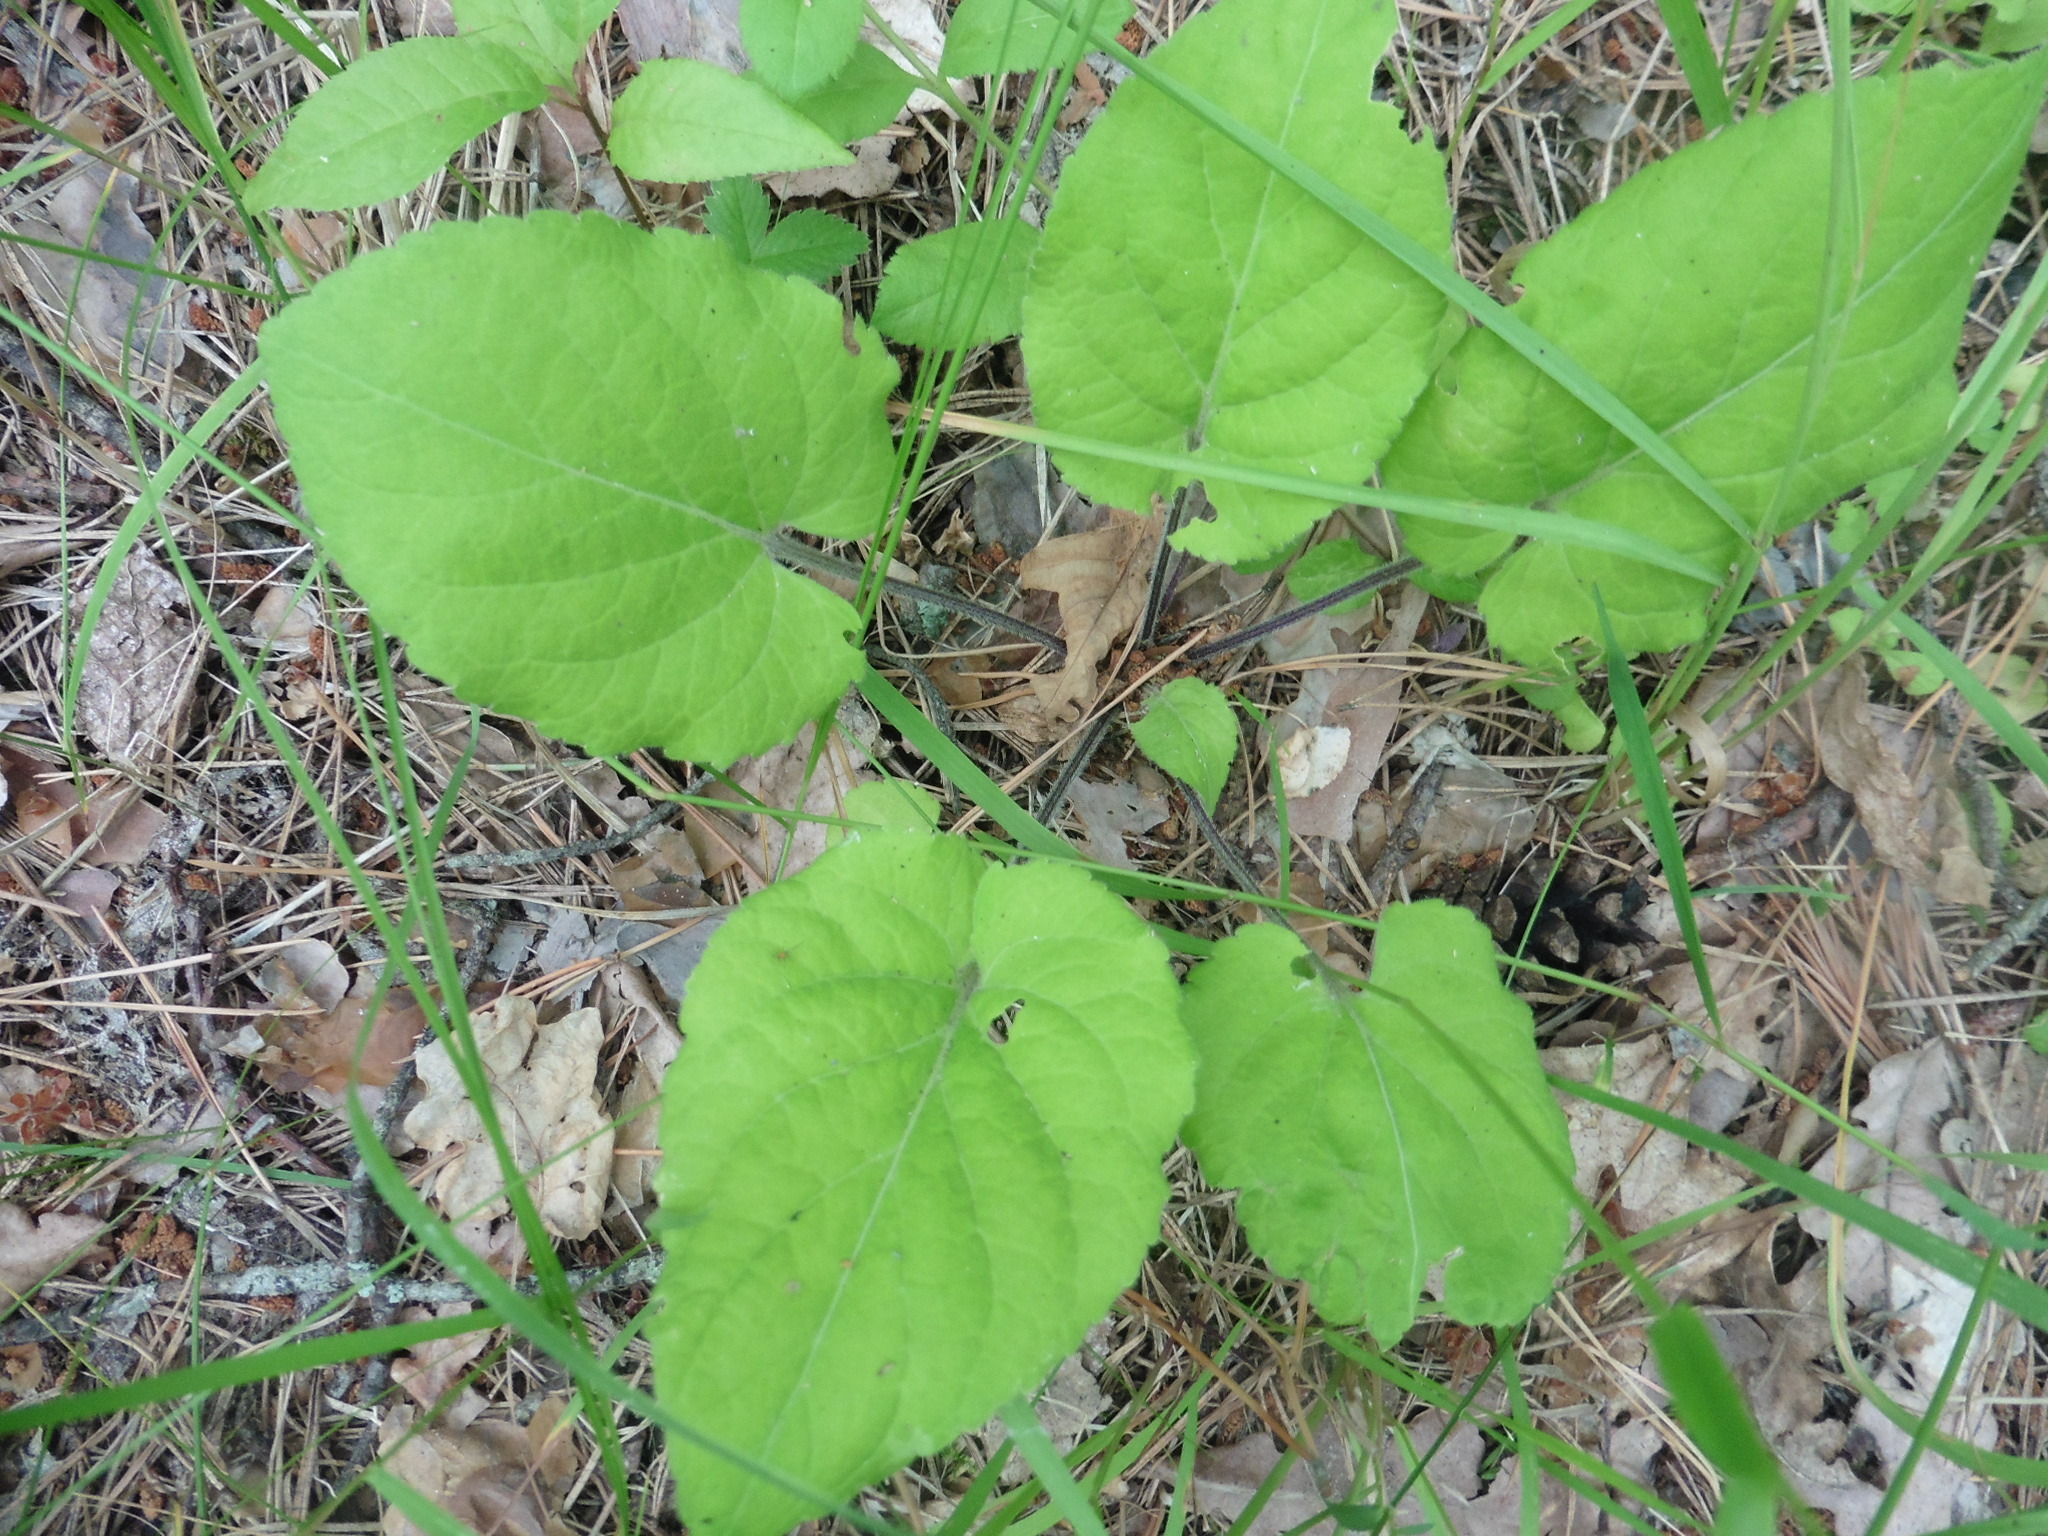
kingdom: Plantae
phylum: Tracheophyta
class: Magnoliopsida
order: Malpighiales
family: Violaceae
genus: Viola
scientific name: Viola collina
